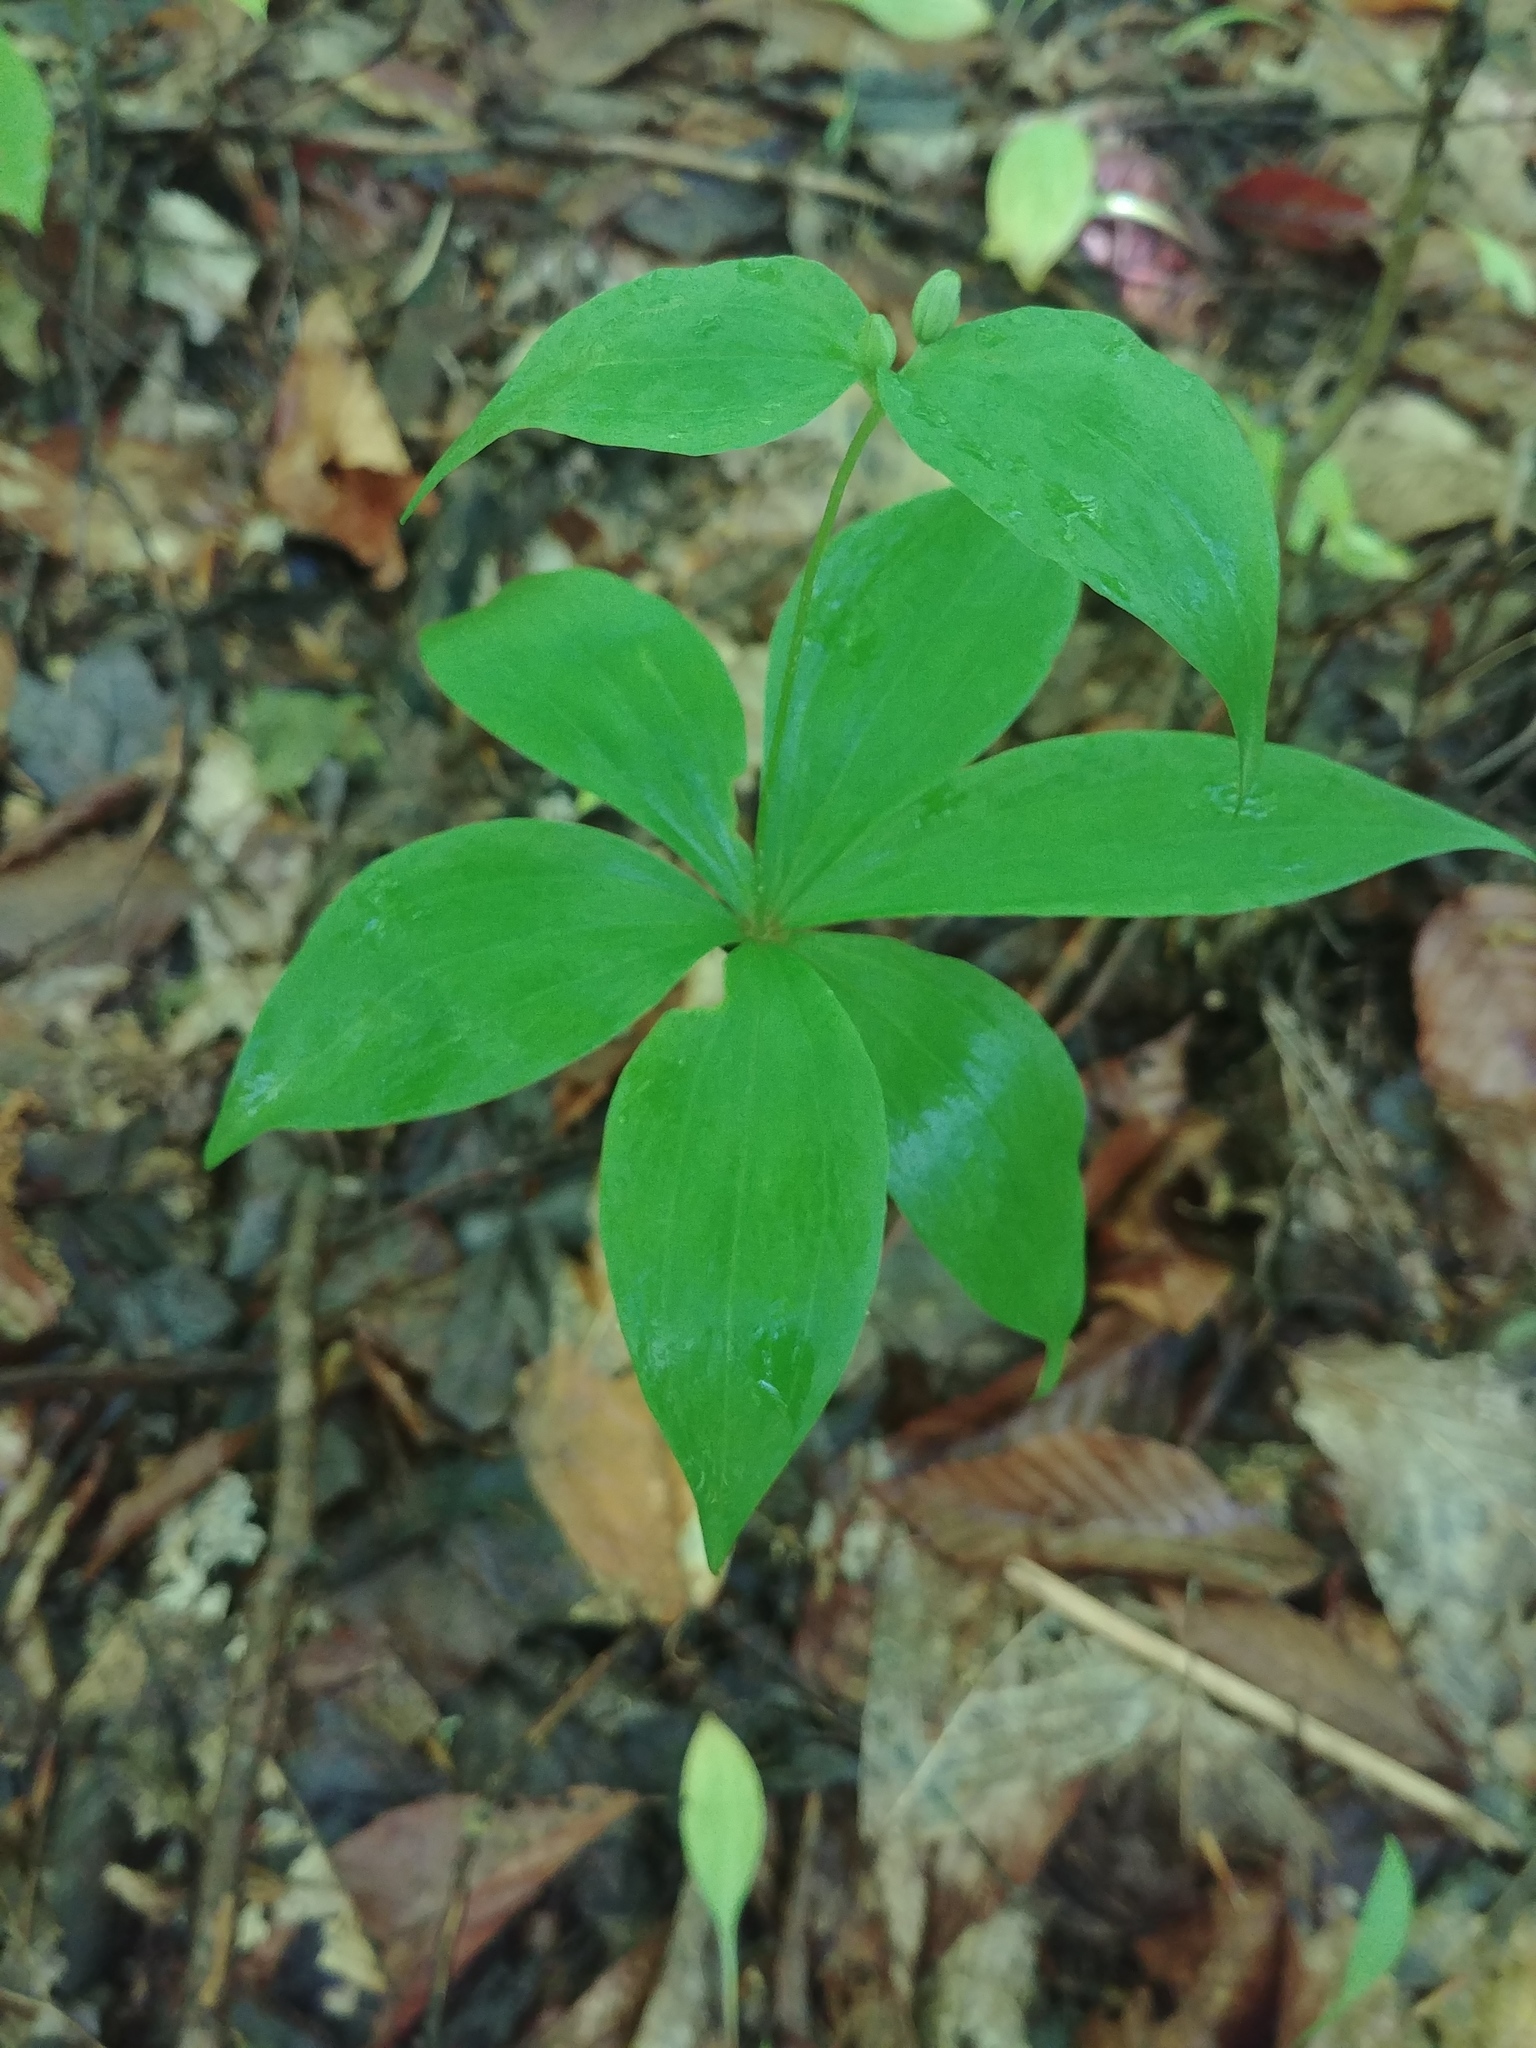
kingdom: Plantae
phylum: Tracheophyta
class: Liliopsida
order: Liliales
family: Liliaceae
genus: Medeola
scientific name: Medeola virginiana
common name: Indian cucumber-root
